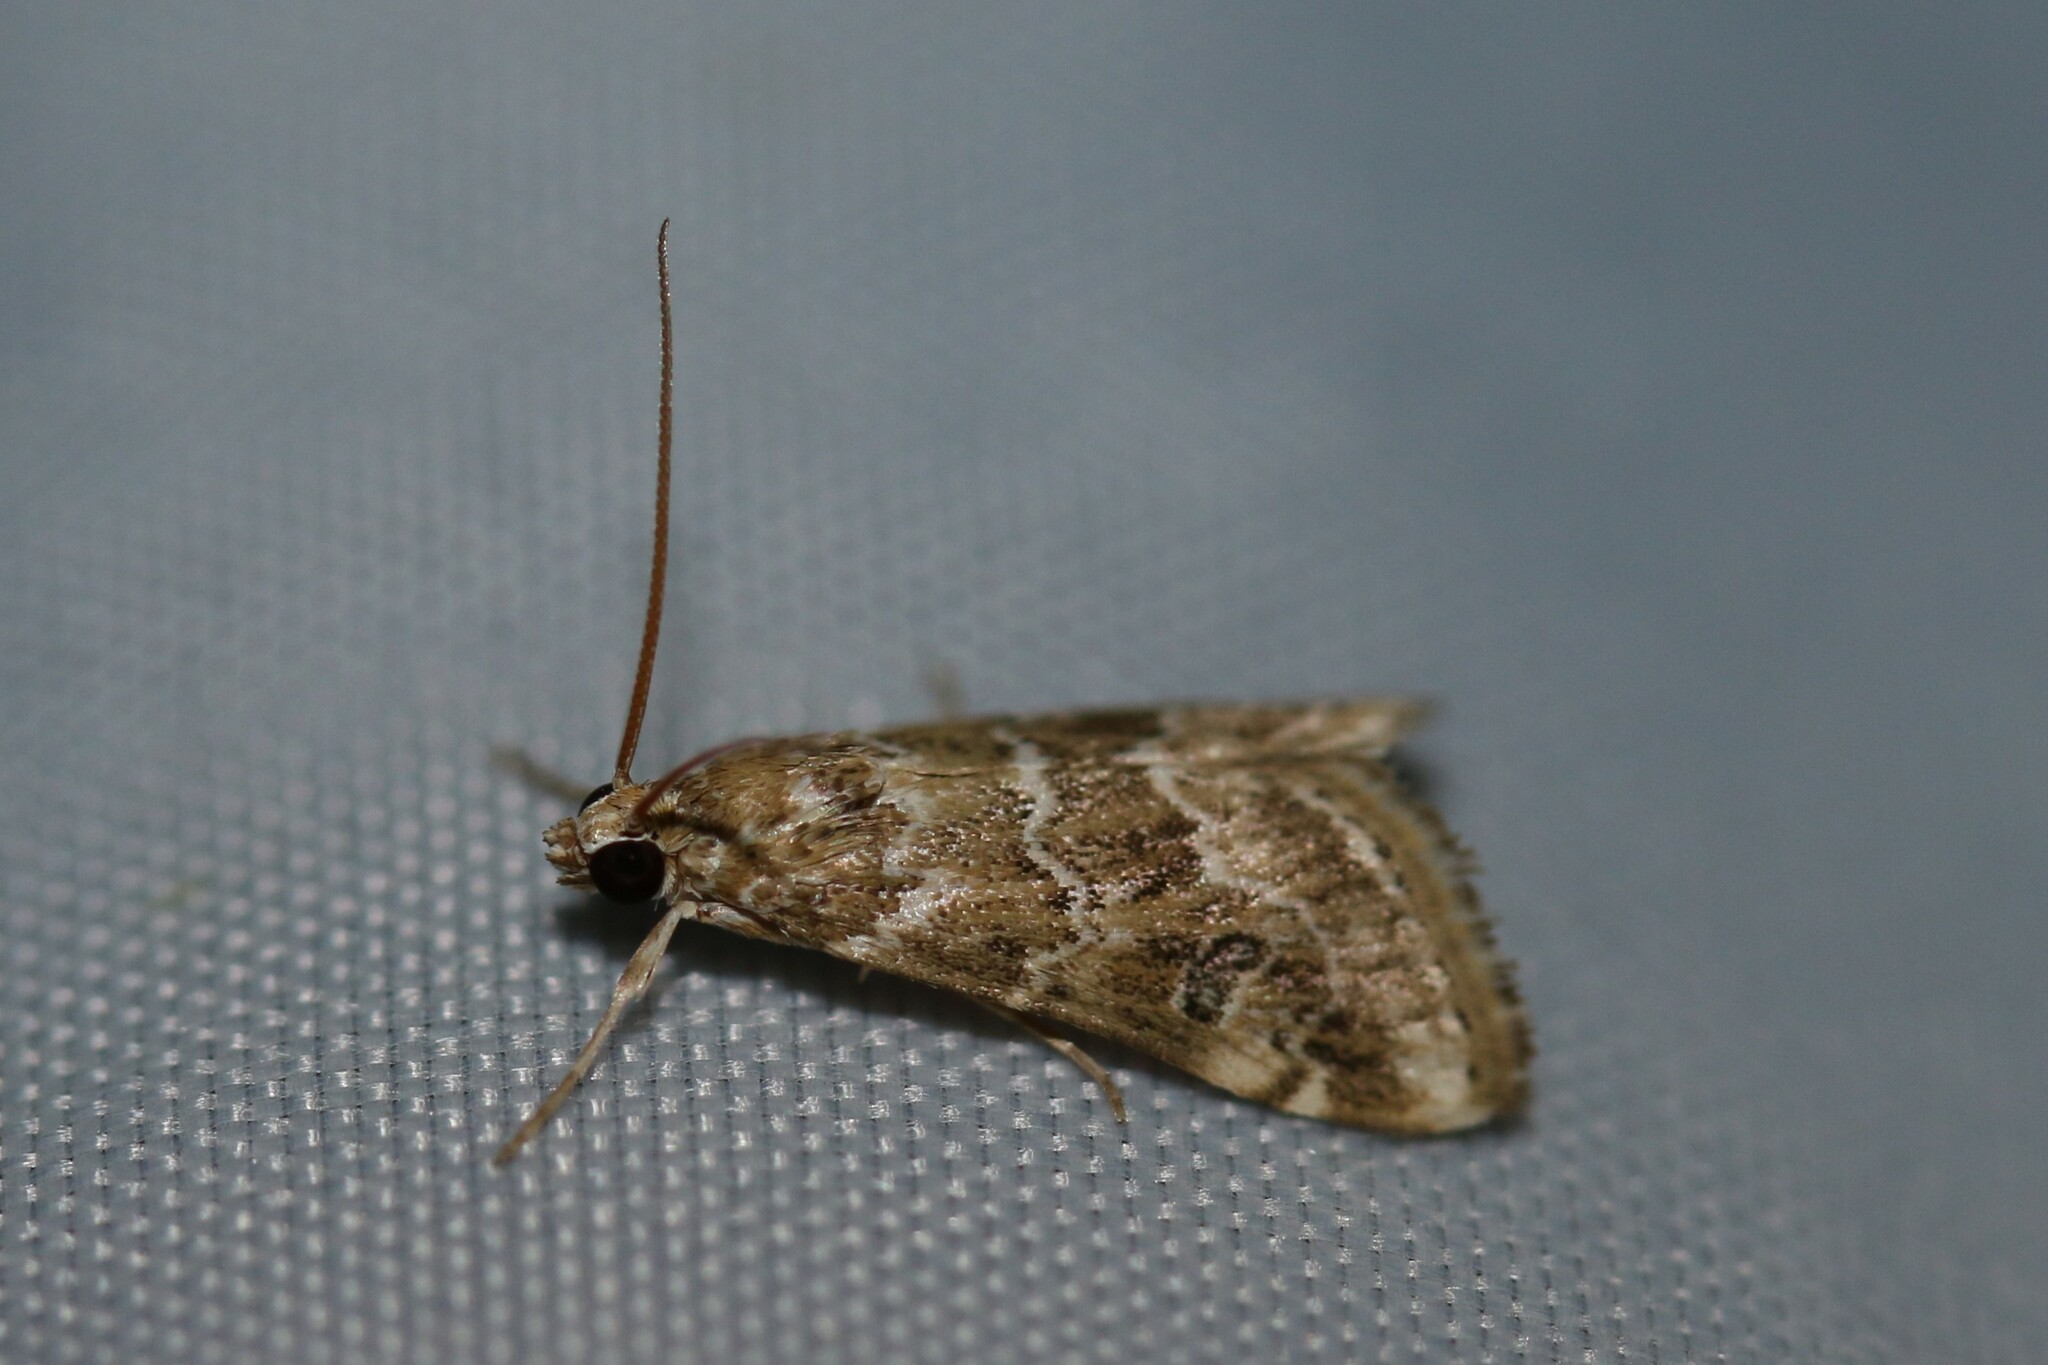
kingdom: Animalia
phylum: Arthropoda
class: Insecta
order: Lepidoptera
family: Crambidae
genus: Hellula
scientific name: Hellula undalis
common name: Cabbage webworm
